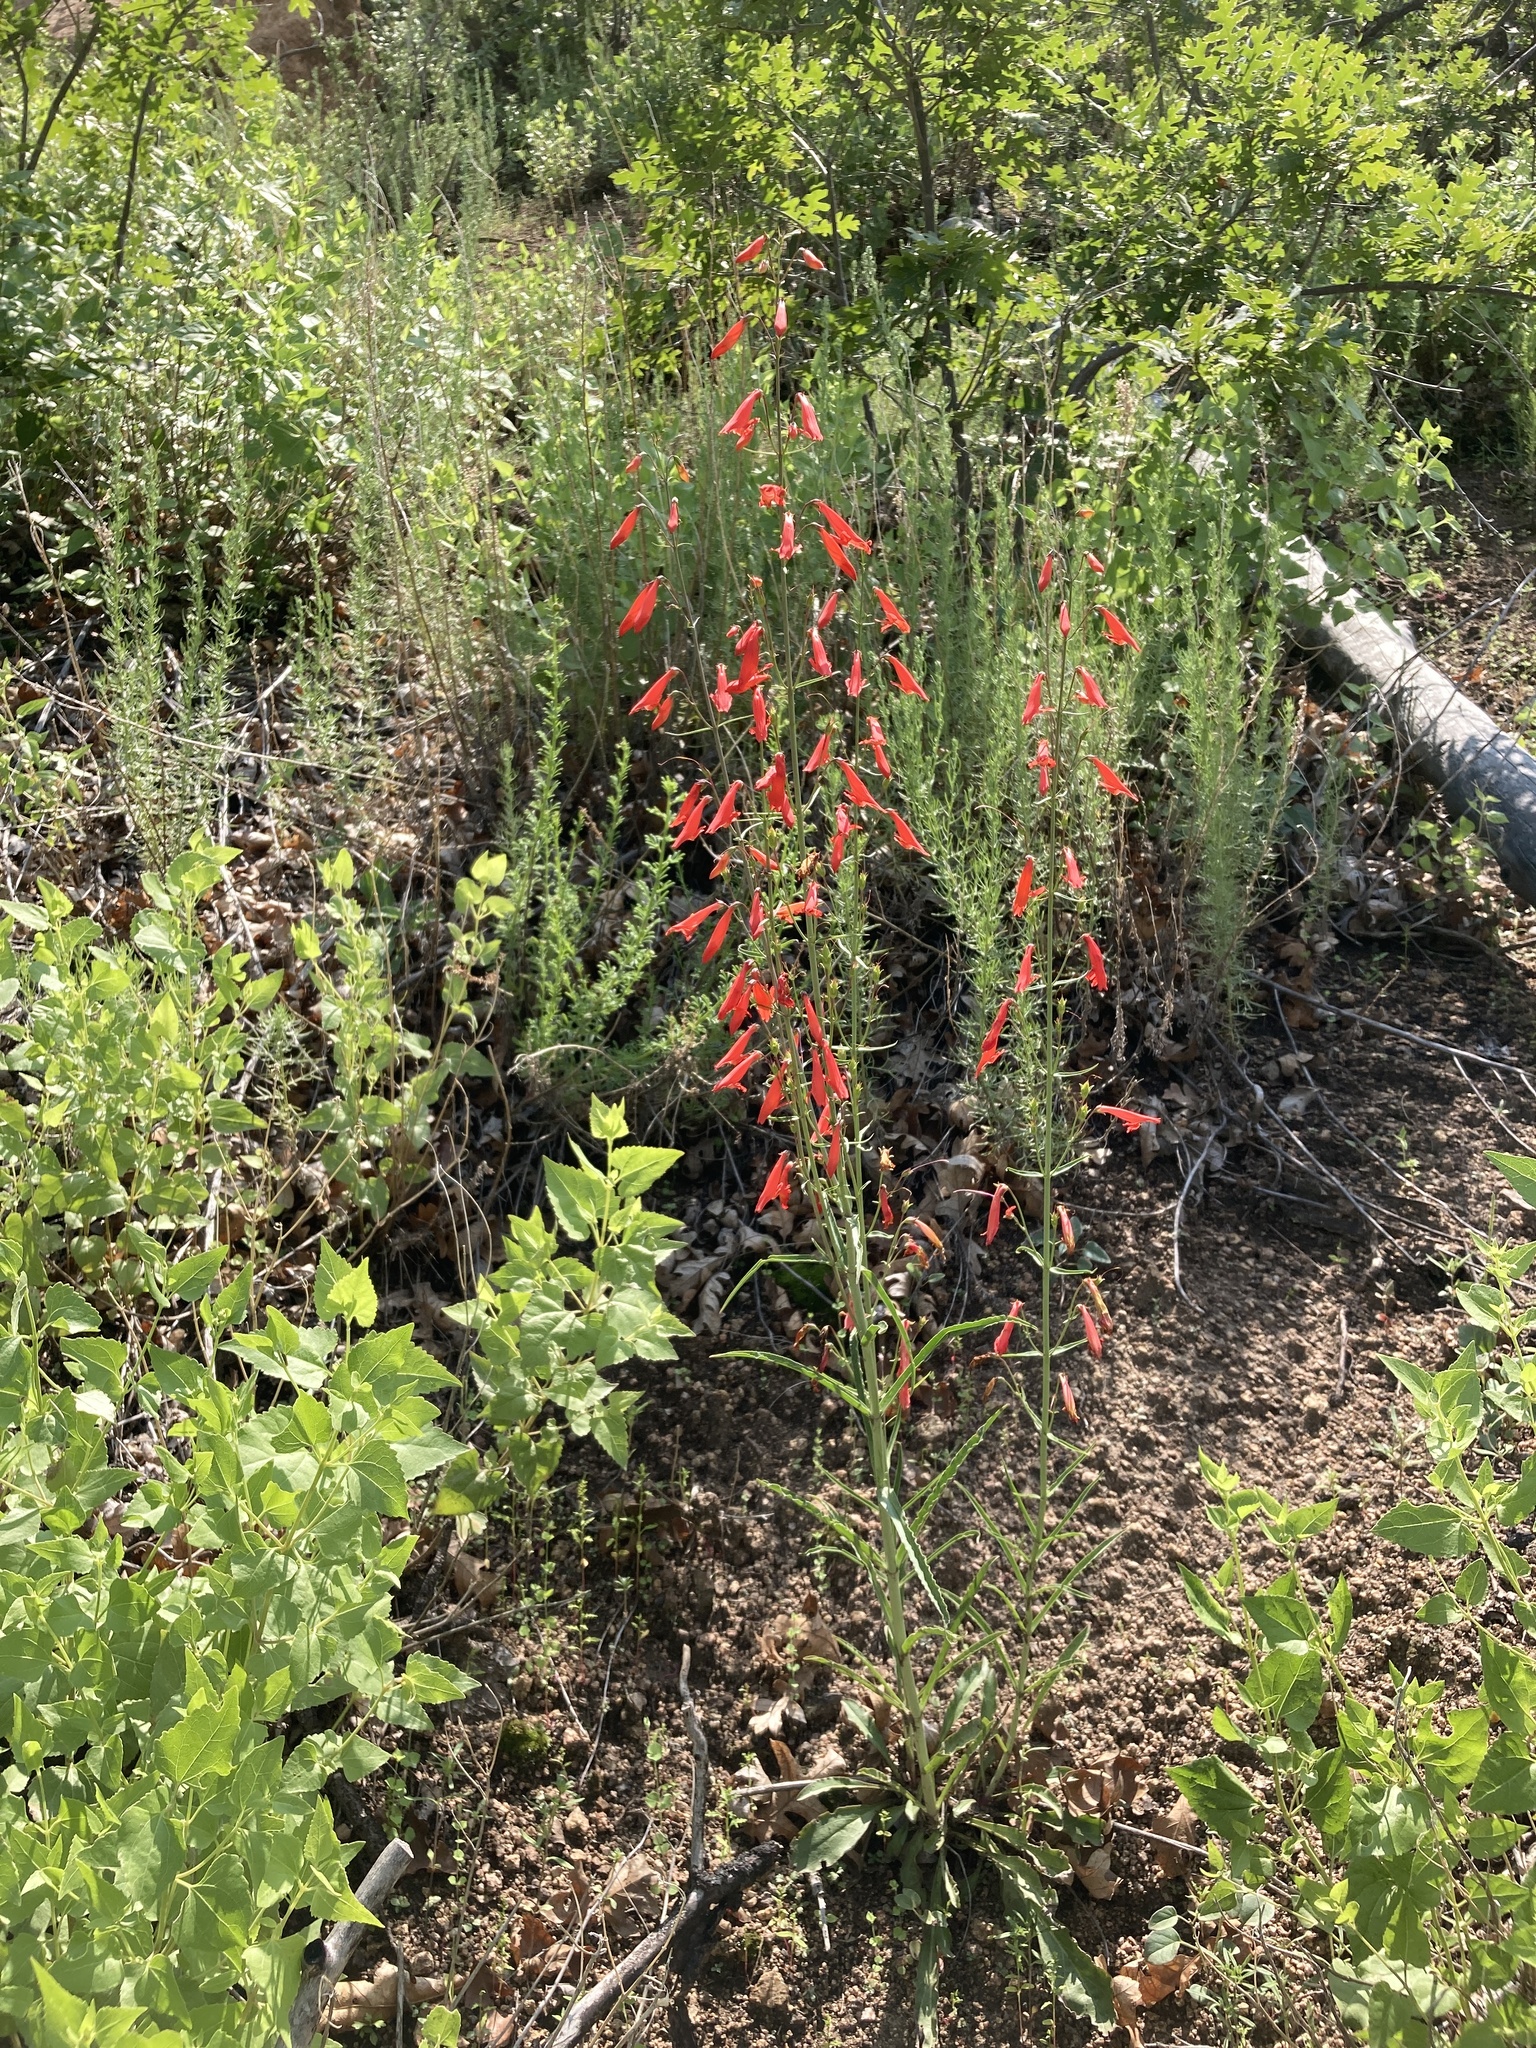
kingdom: Plantae
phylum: Tracheophyta
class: Magnoliopsida
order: Lamiales
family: Plantaginaceae
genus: Penstemon
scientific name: Penstemon barbatus
